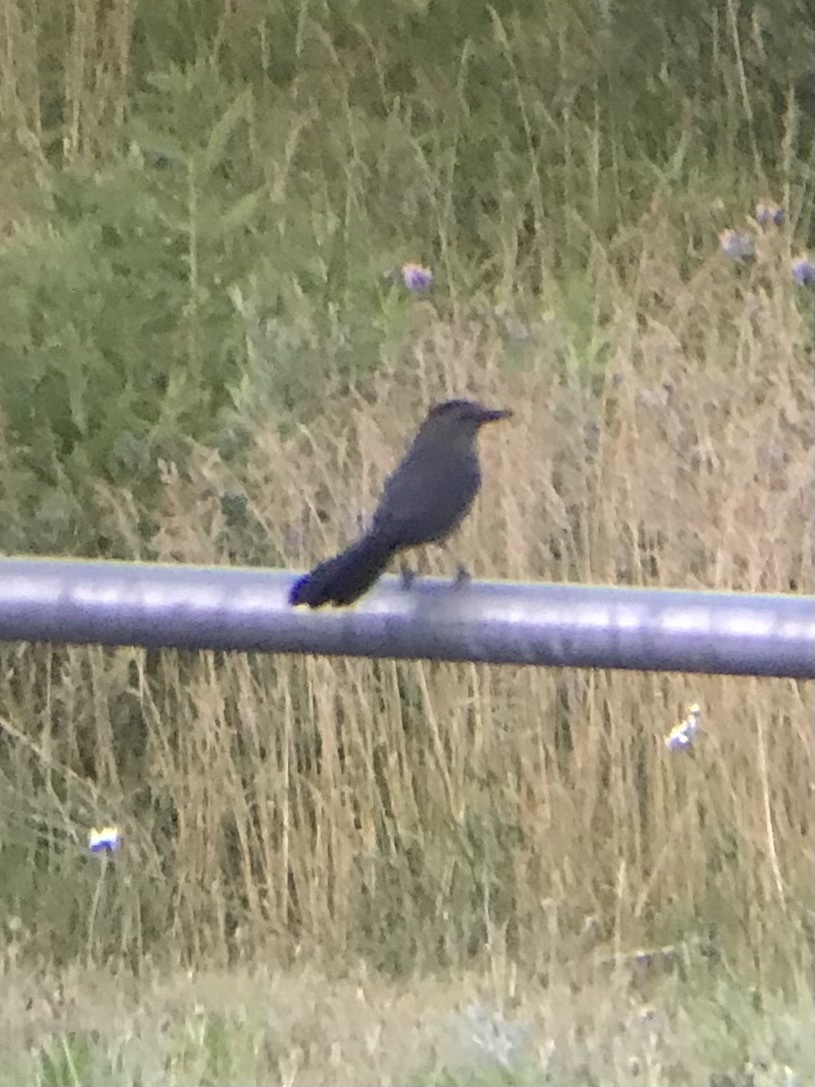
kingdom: Animalia
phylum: Chordata
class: Aves
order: Passeriformes
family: Mimidae
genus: Dumetella
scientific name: Dumetella carolinensis
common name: Gray catbird
